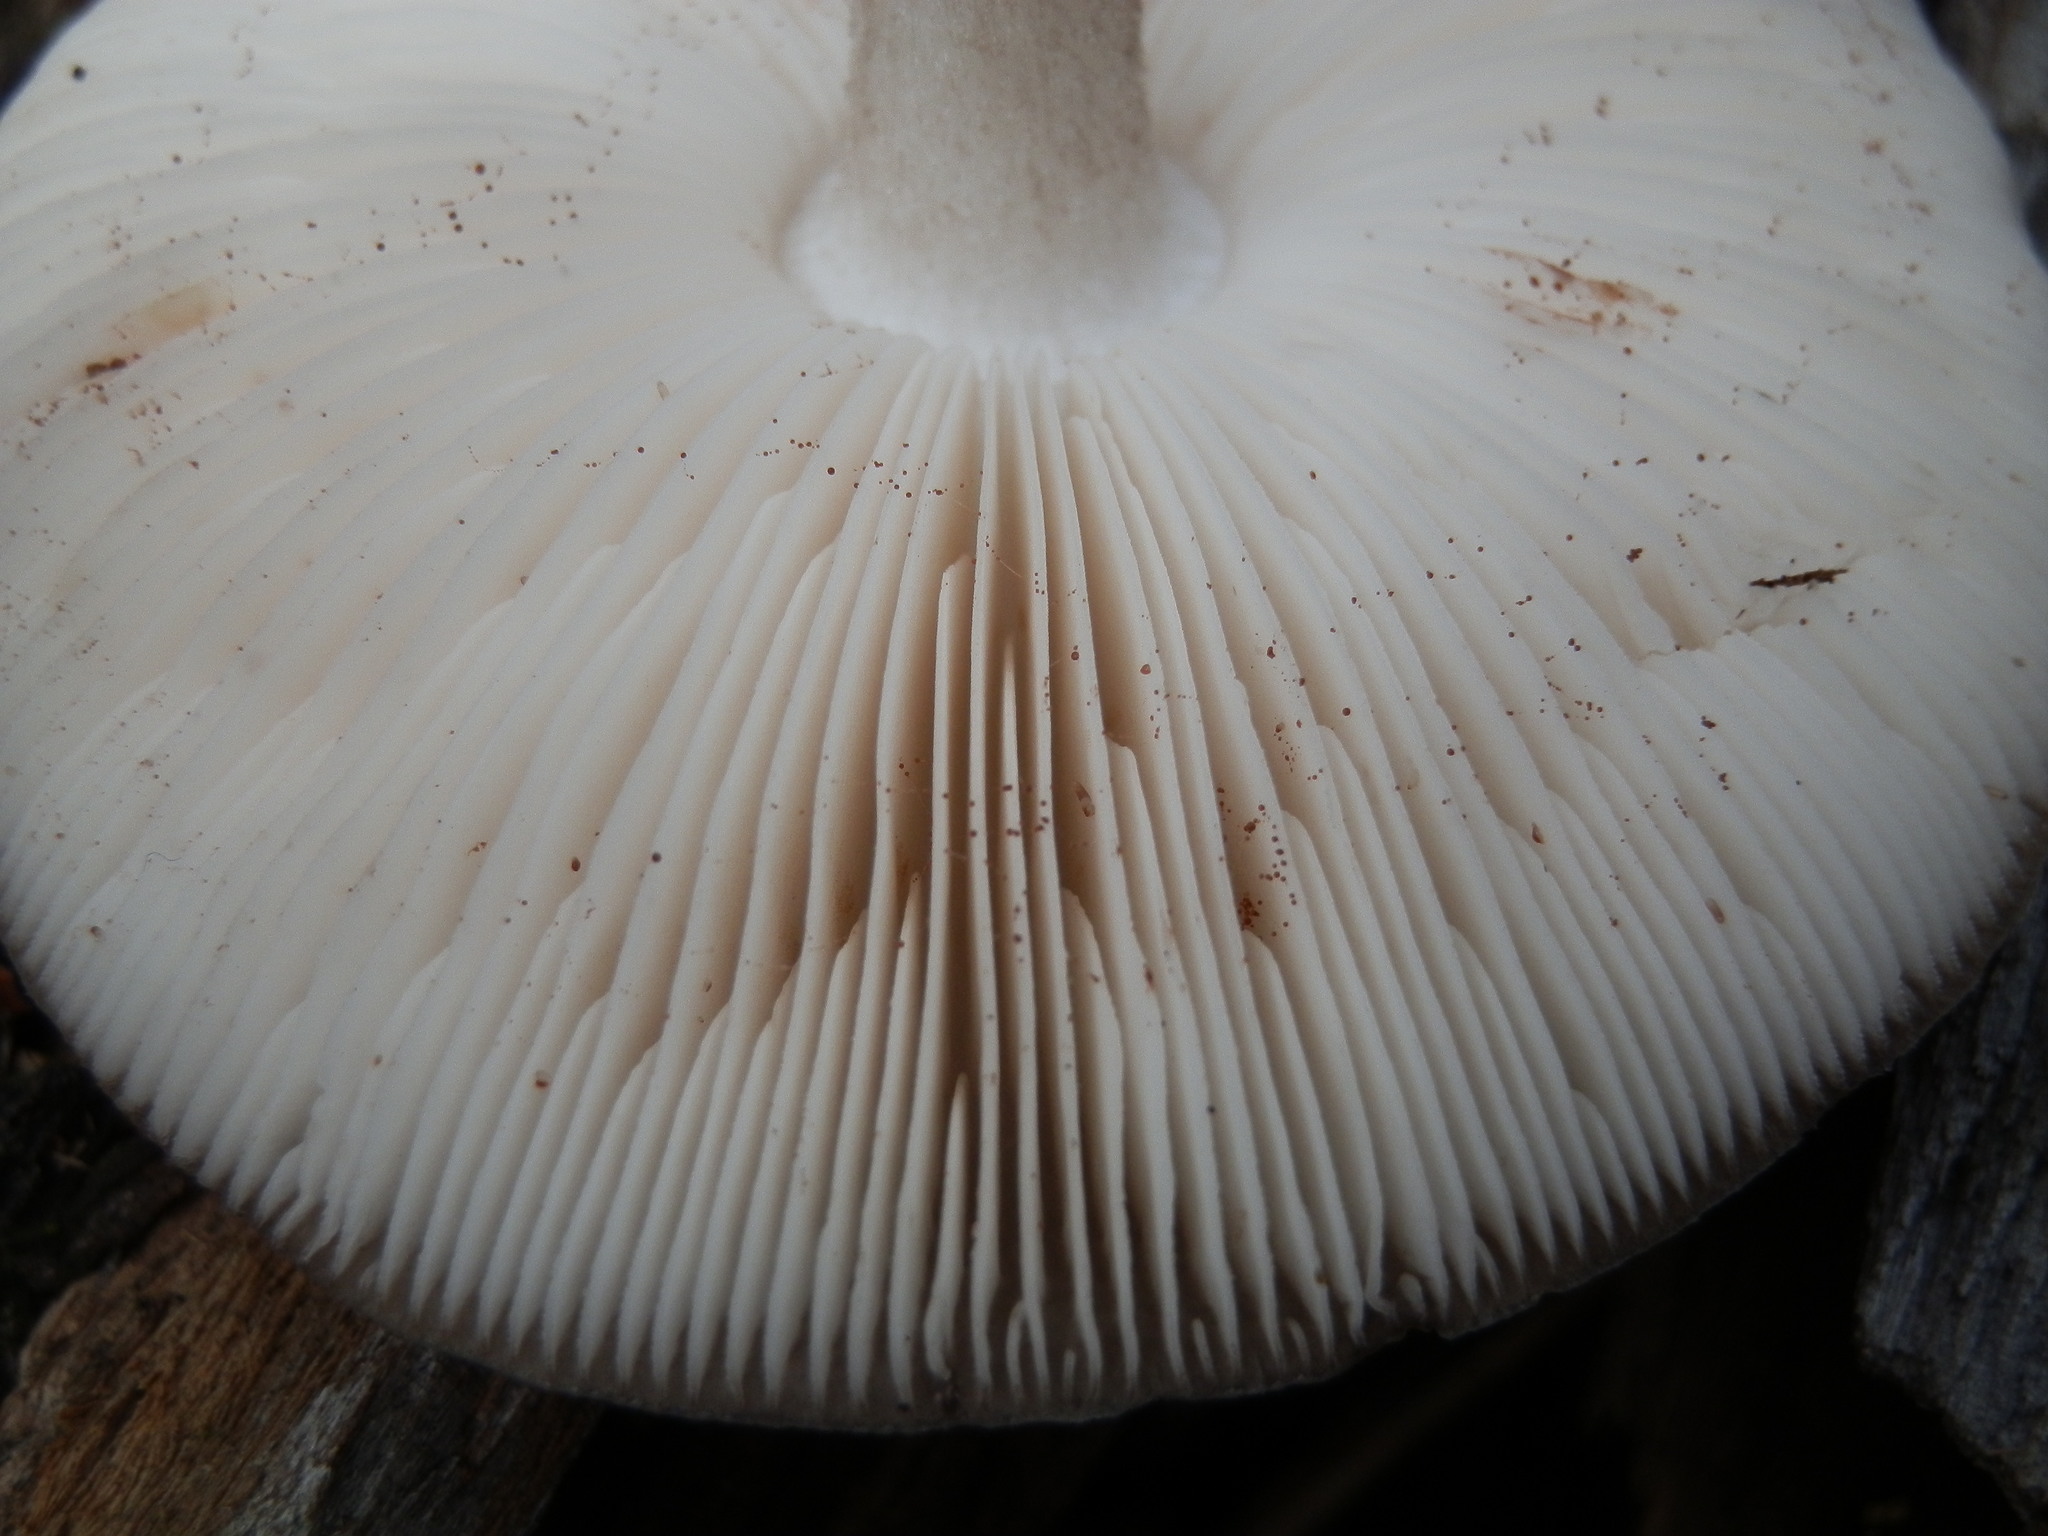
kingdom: Fungi
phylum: Basidiomycota
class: Agaricomycetes
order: Agaricales
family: Pluteaceae
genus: Pluteus
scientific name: Pluteus cervinus
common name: Deer shield
